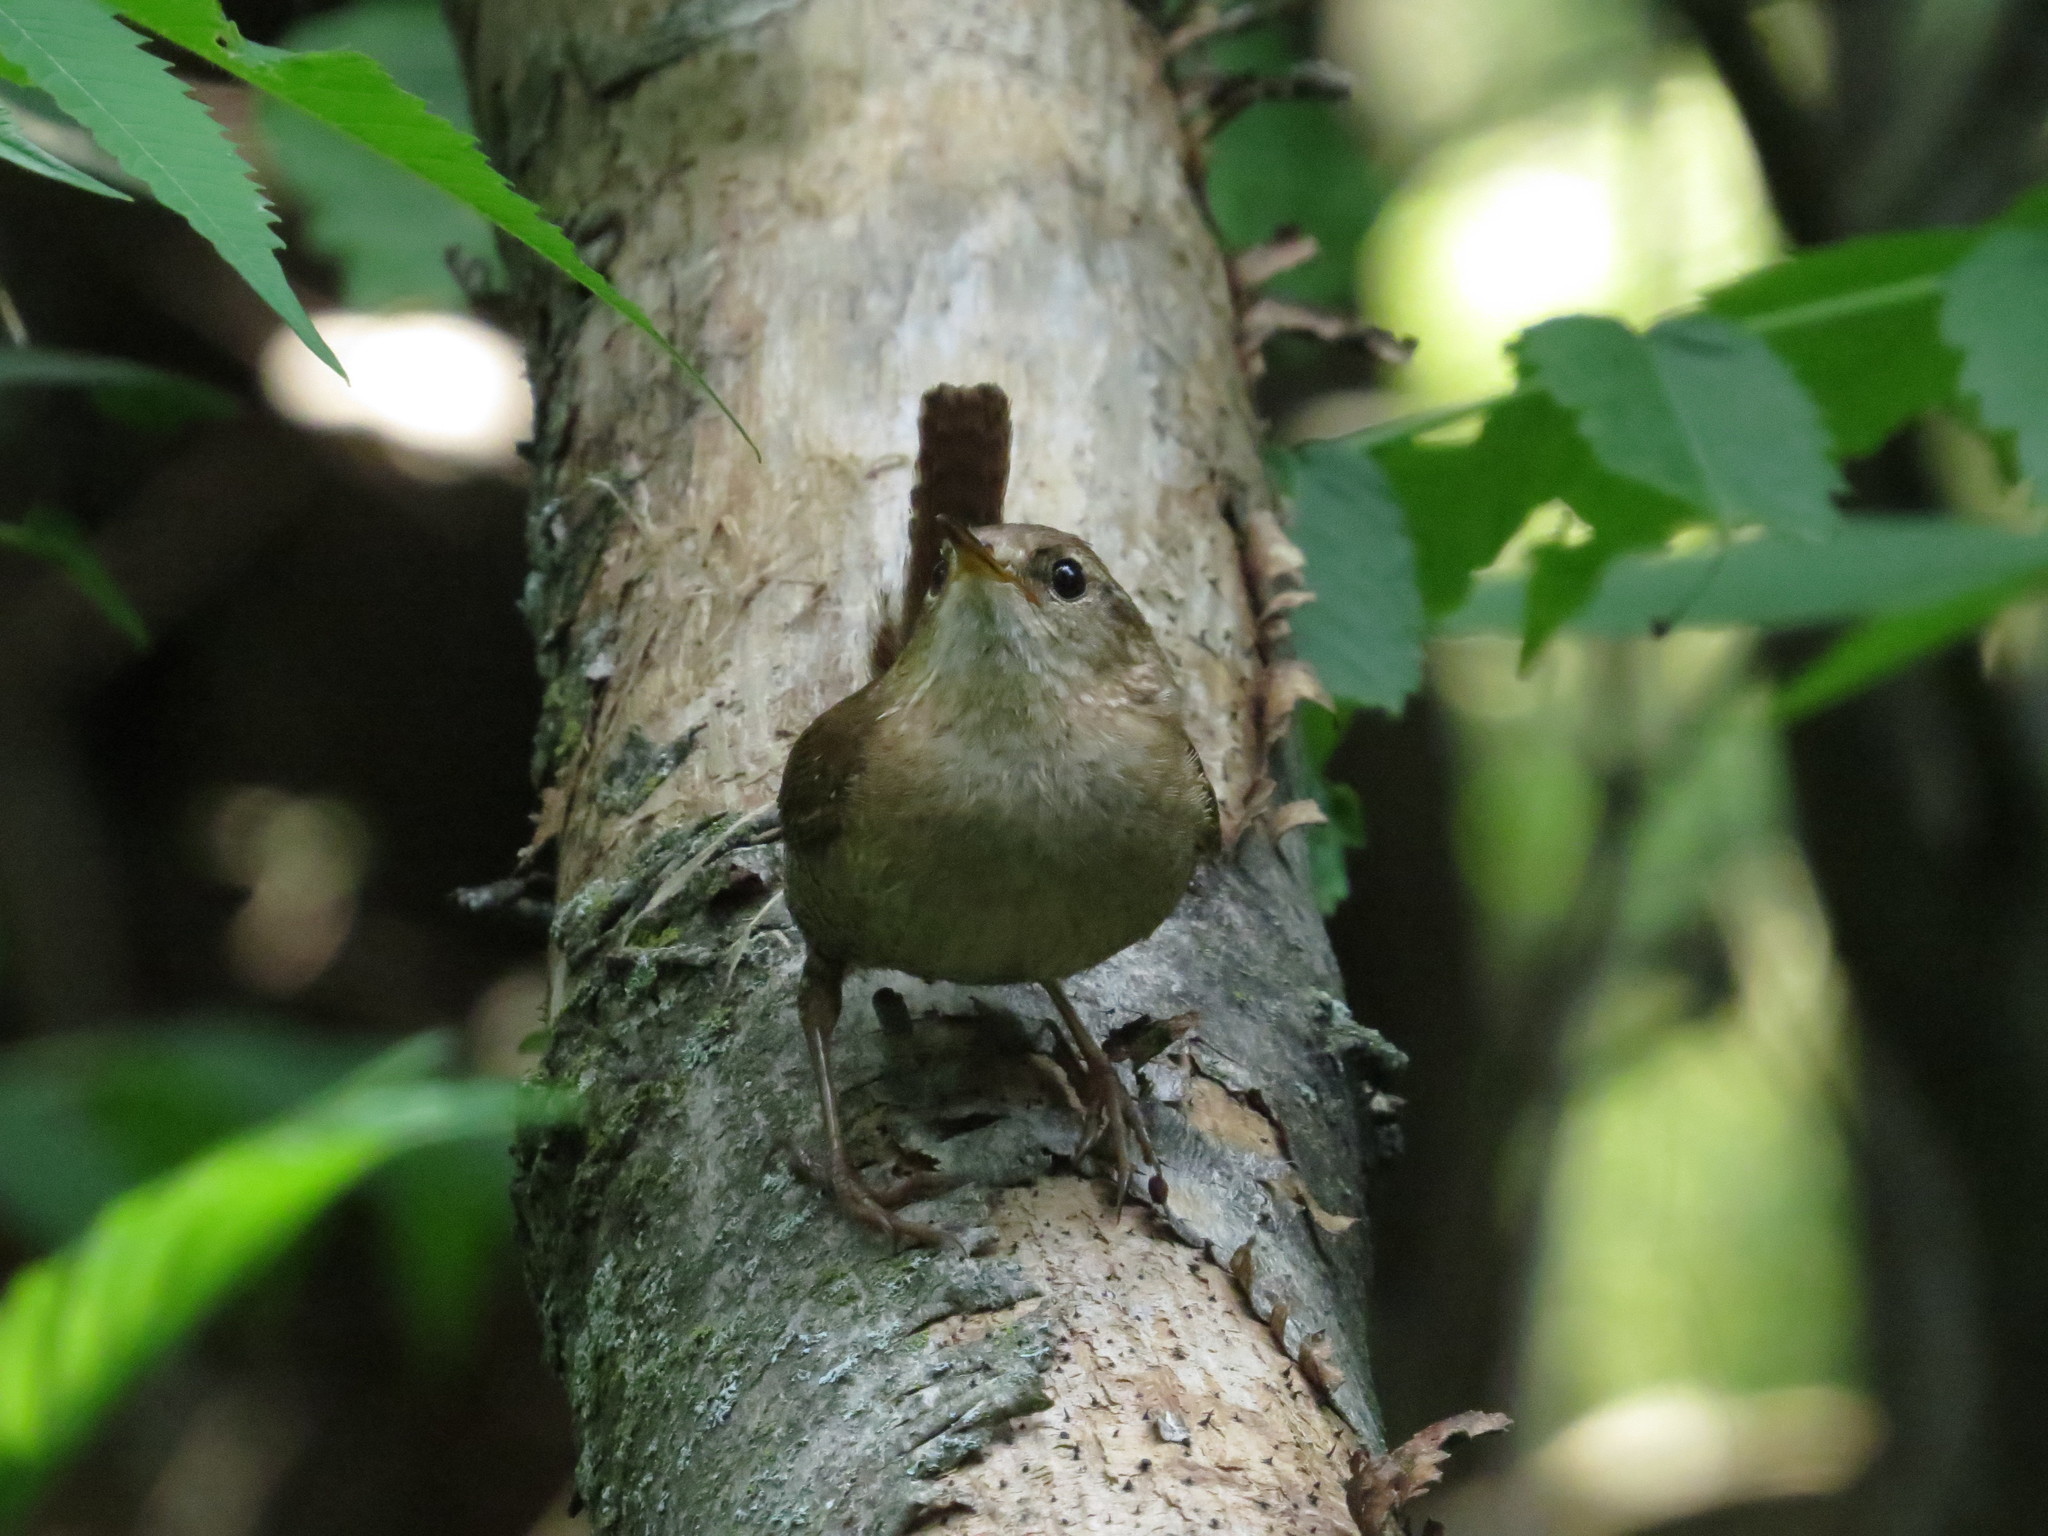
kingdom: Animalia
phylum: Chordata
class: Aves
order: Passeriformes
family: Troglodytidae
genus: Troglodytes
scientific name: Troglodytes hiemalis
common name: Winter wren
